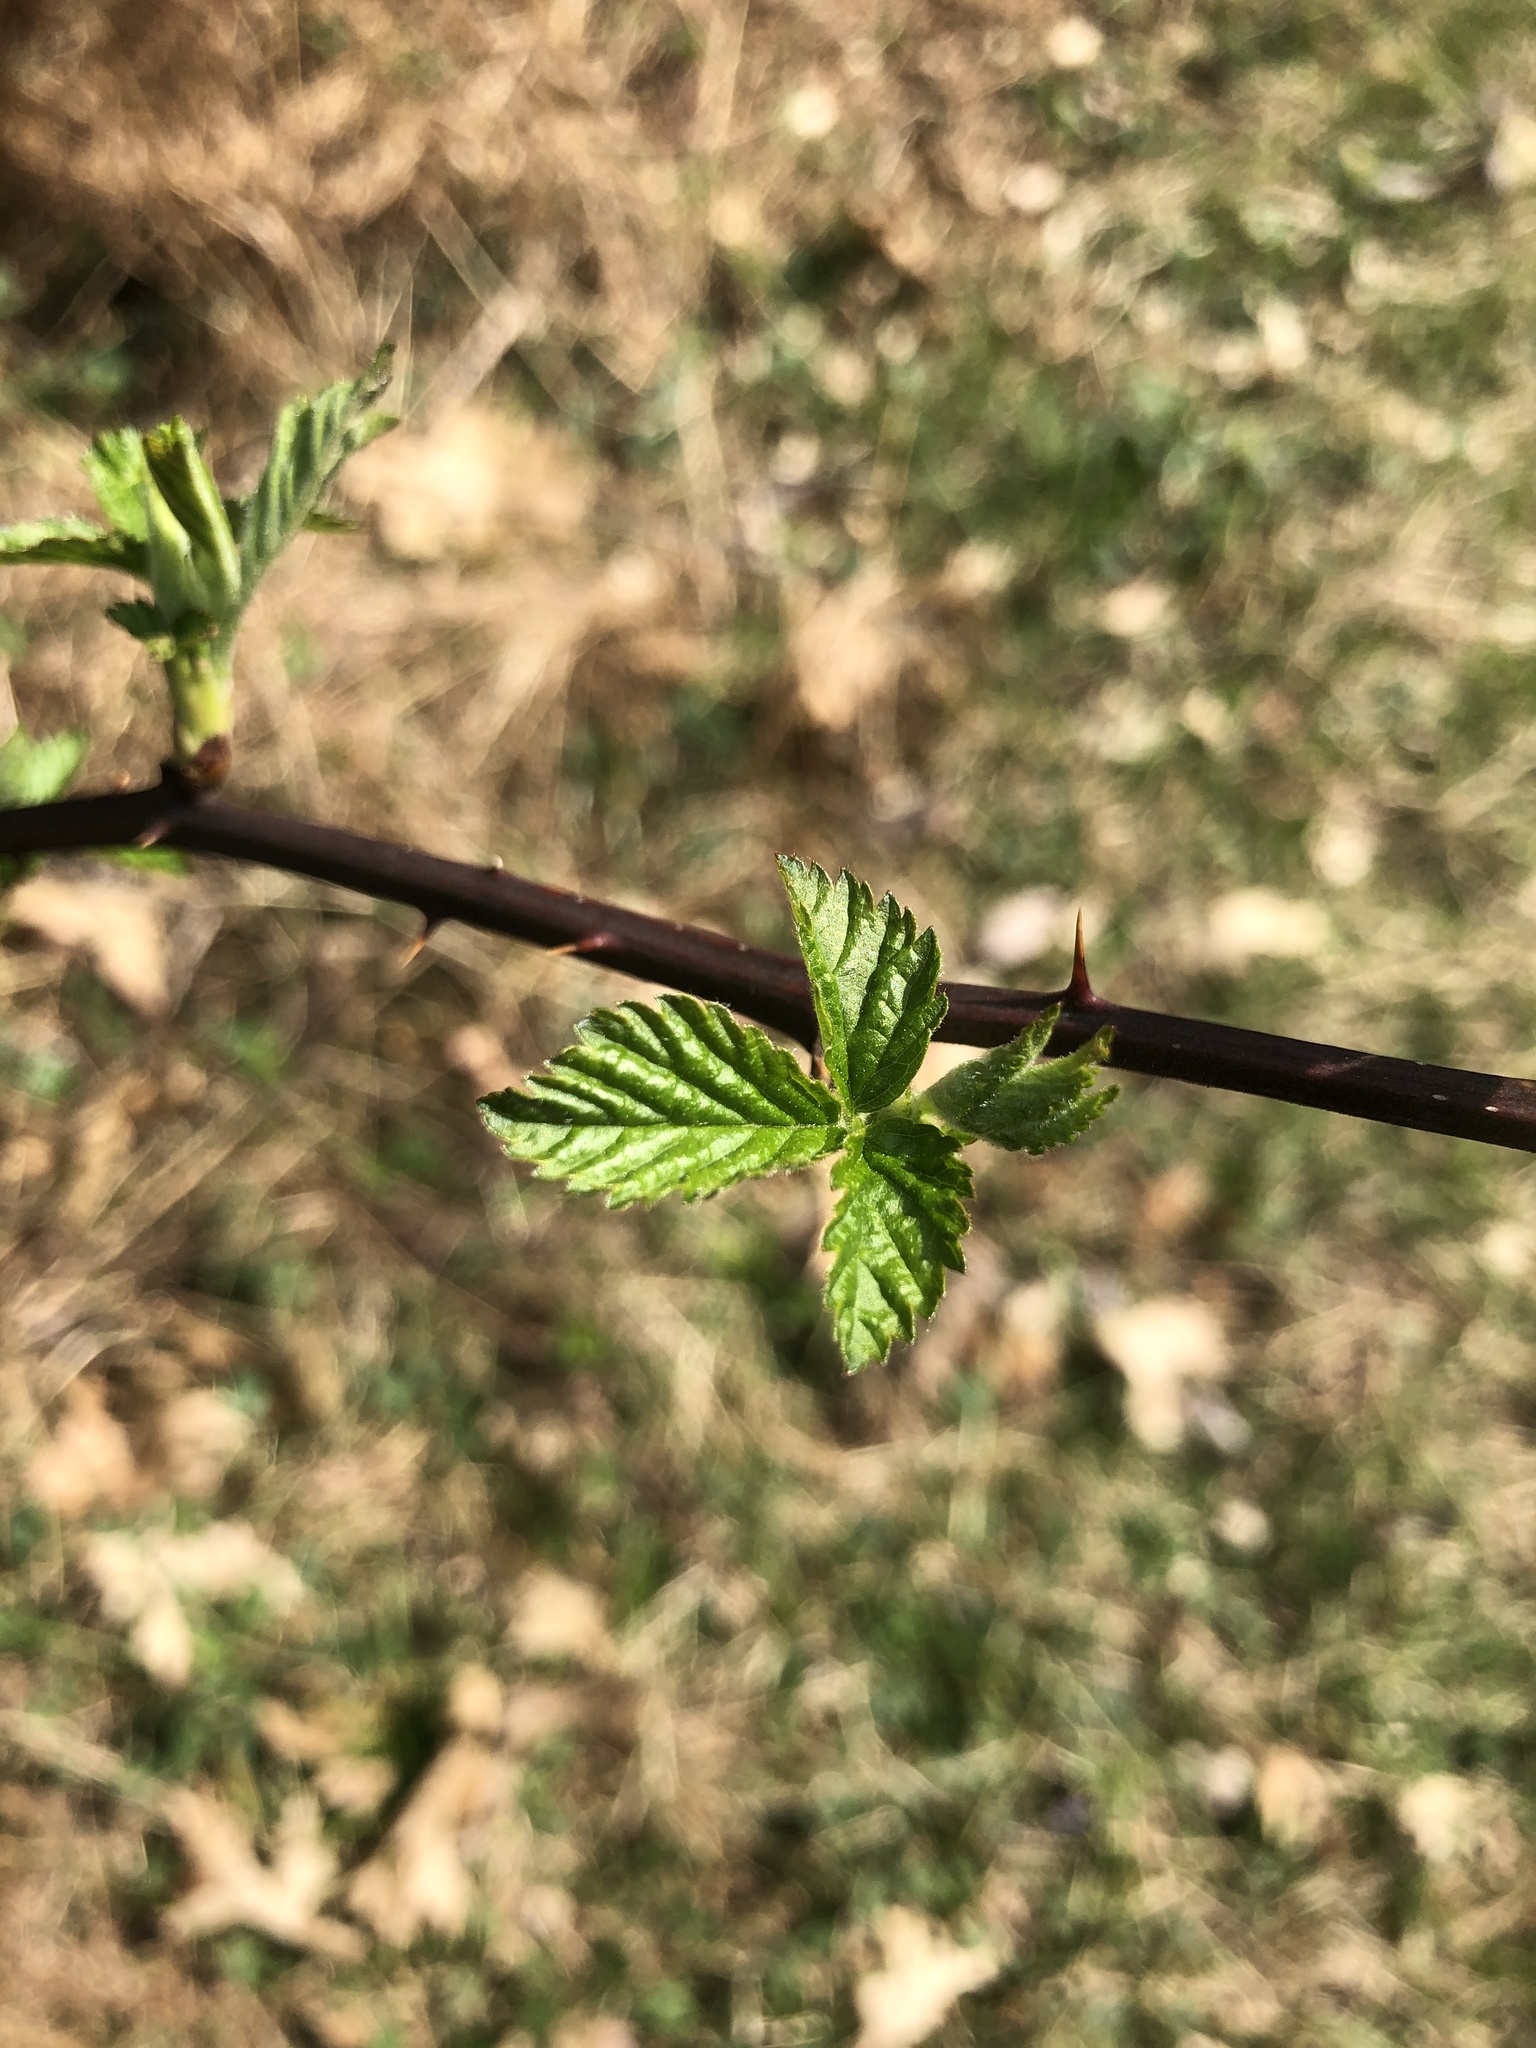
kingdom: Plantae
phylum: Tracheophyta
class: Magnoliopsida
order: Rosales
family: Rosaceae
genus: Rosa
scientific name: Rosa multiflora
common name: Multiflora rose
